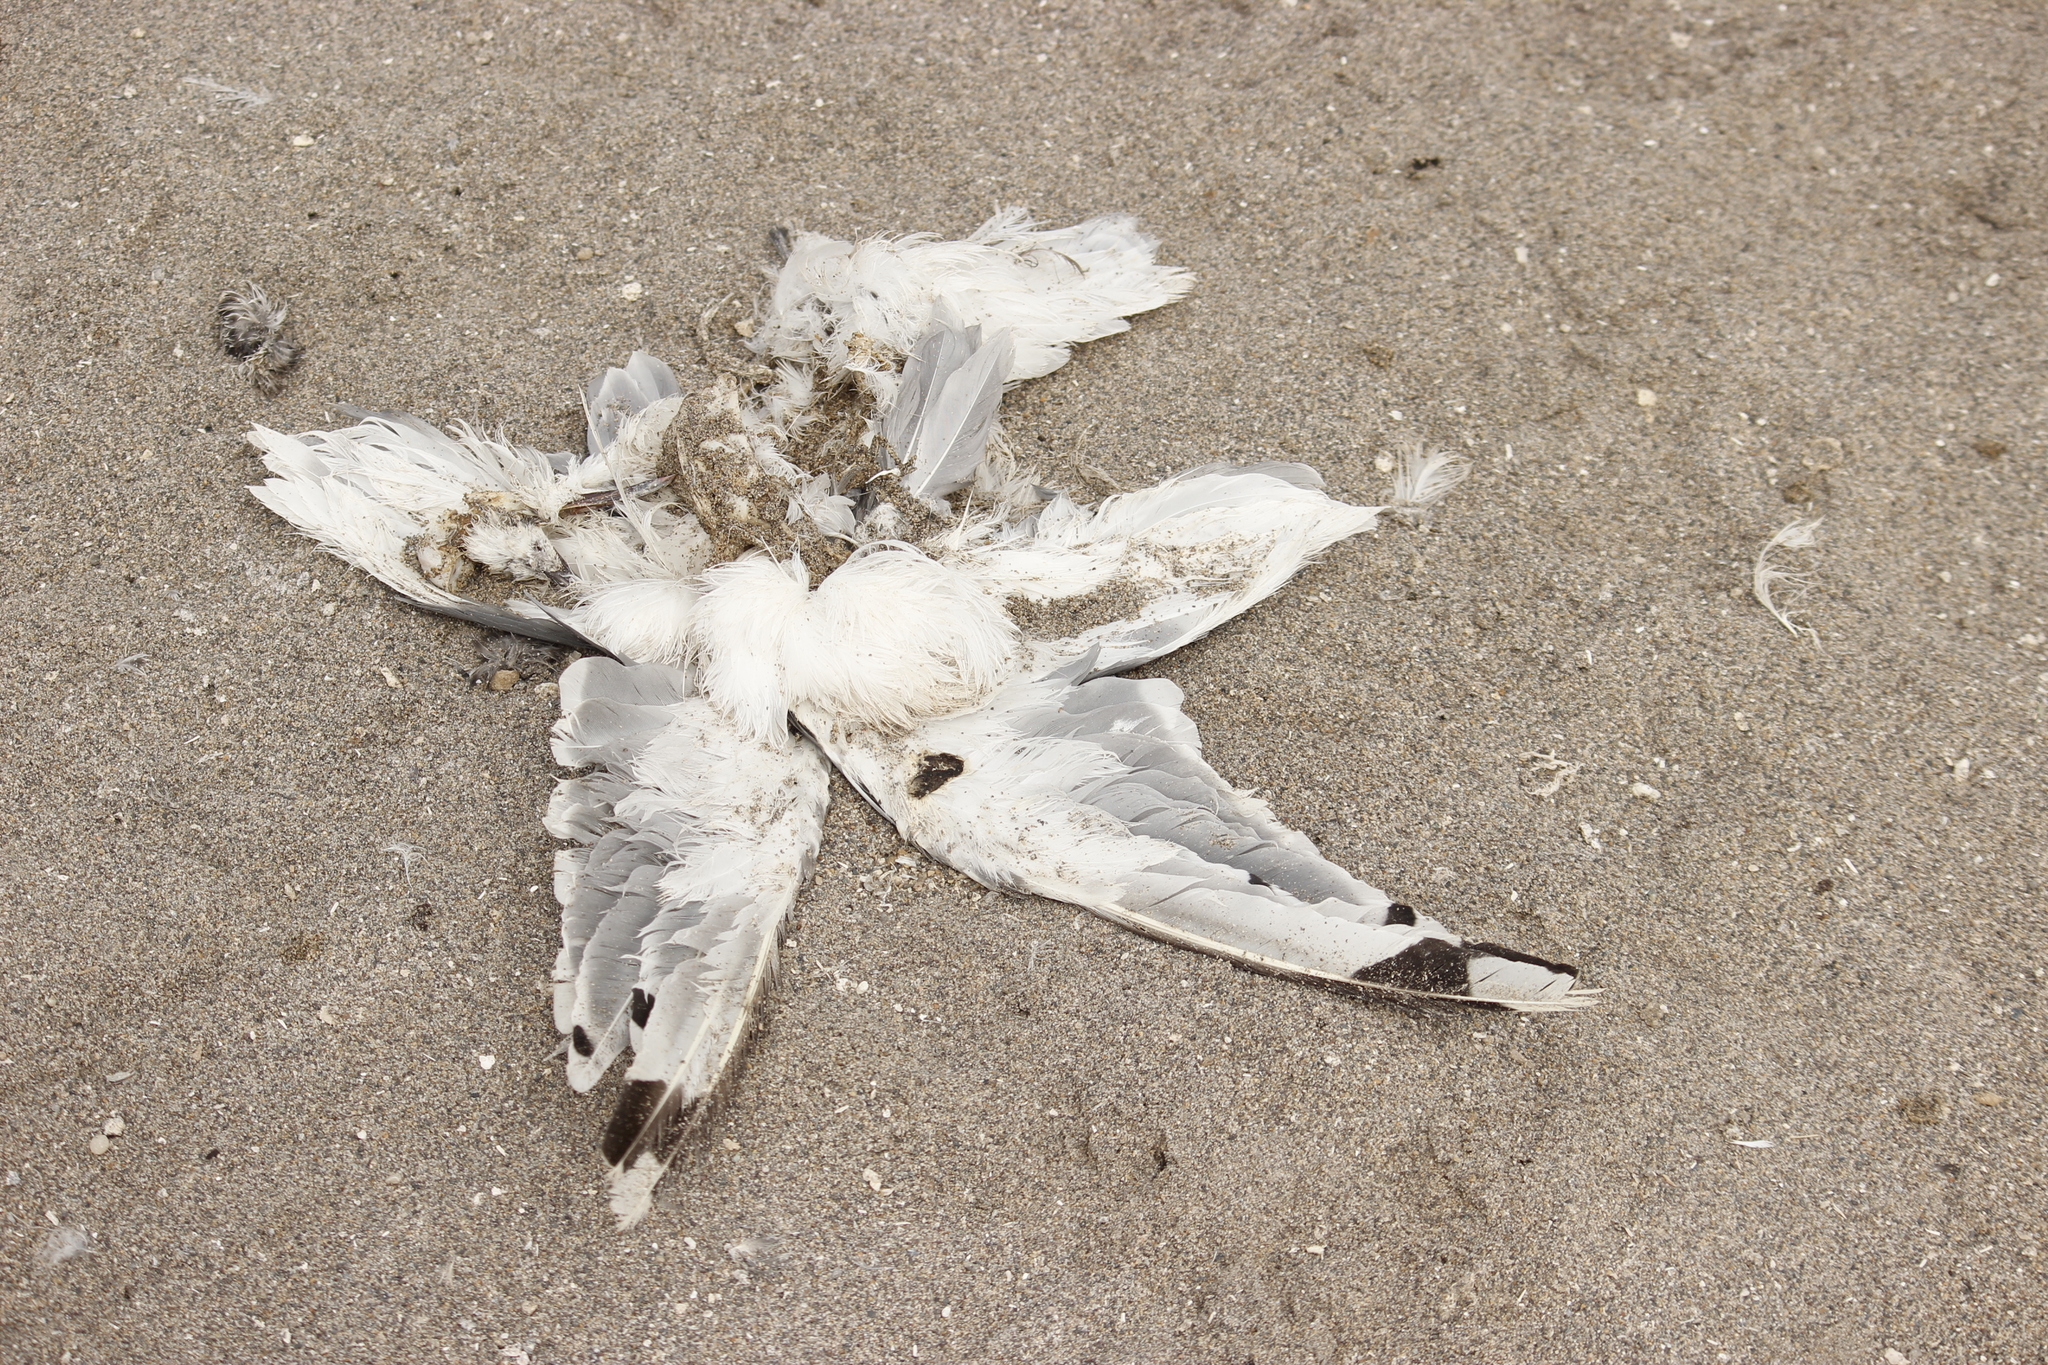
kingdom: Animalia
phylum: Chordata
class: Aves
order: Charadriiformes
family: Laridae
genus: Leucophaeus
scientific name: Leucophaeus pipixcan
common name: Franklin's gull
